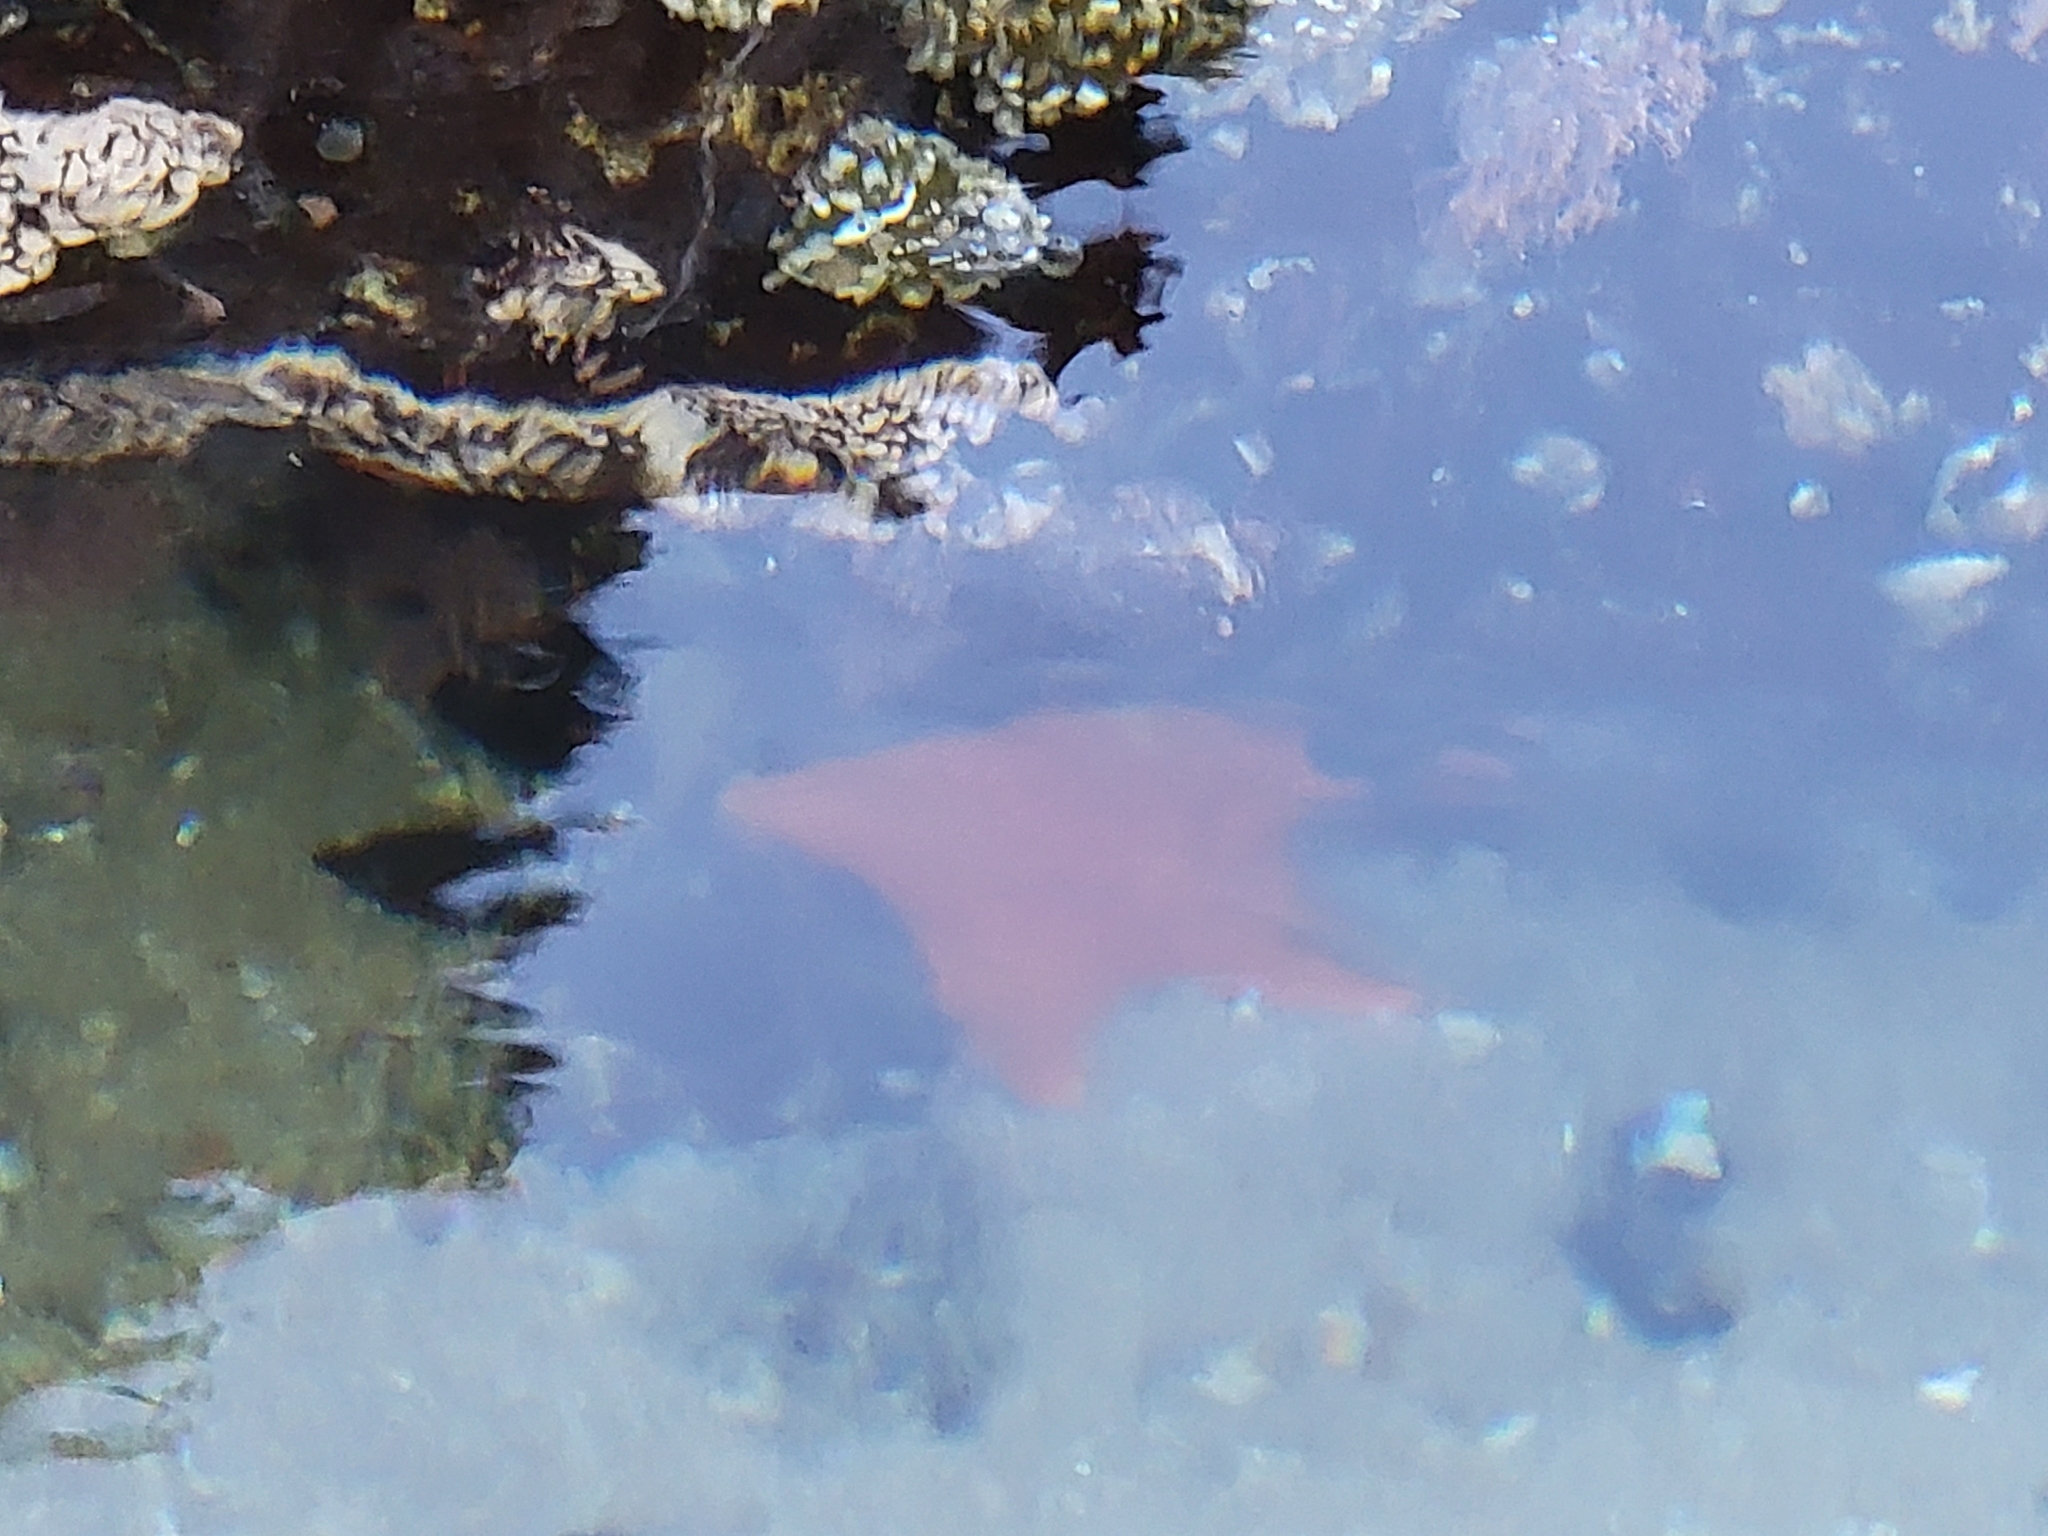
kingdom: Animalia
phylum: Echinodermata
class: Asteroidea
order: Valvatida
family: Asterinidae
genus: Patiria
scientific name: Patiria miniata
